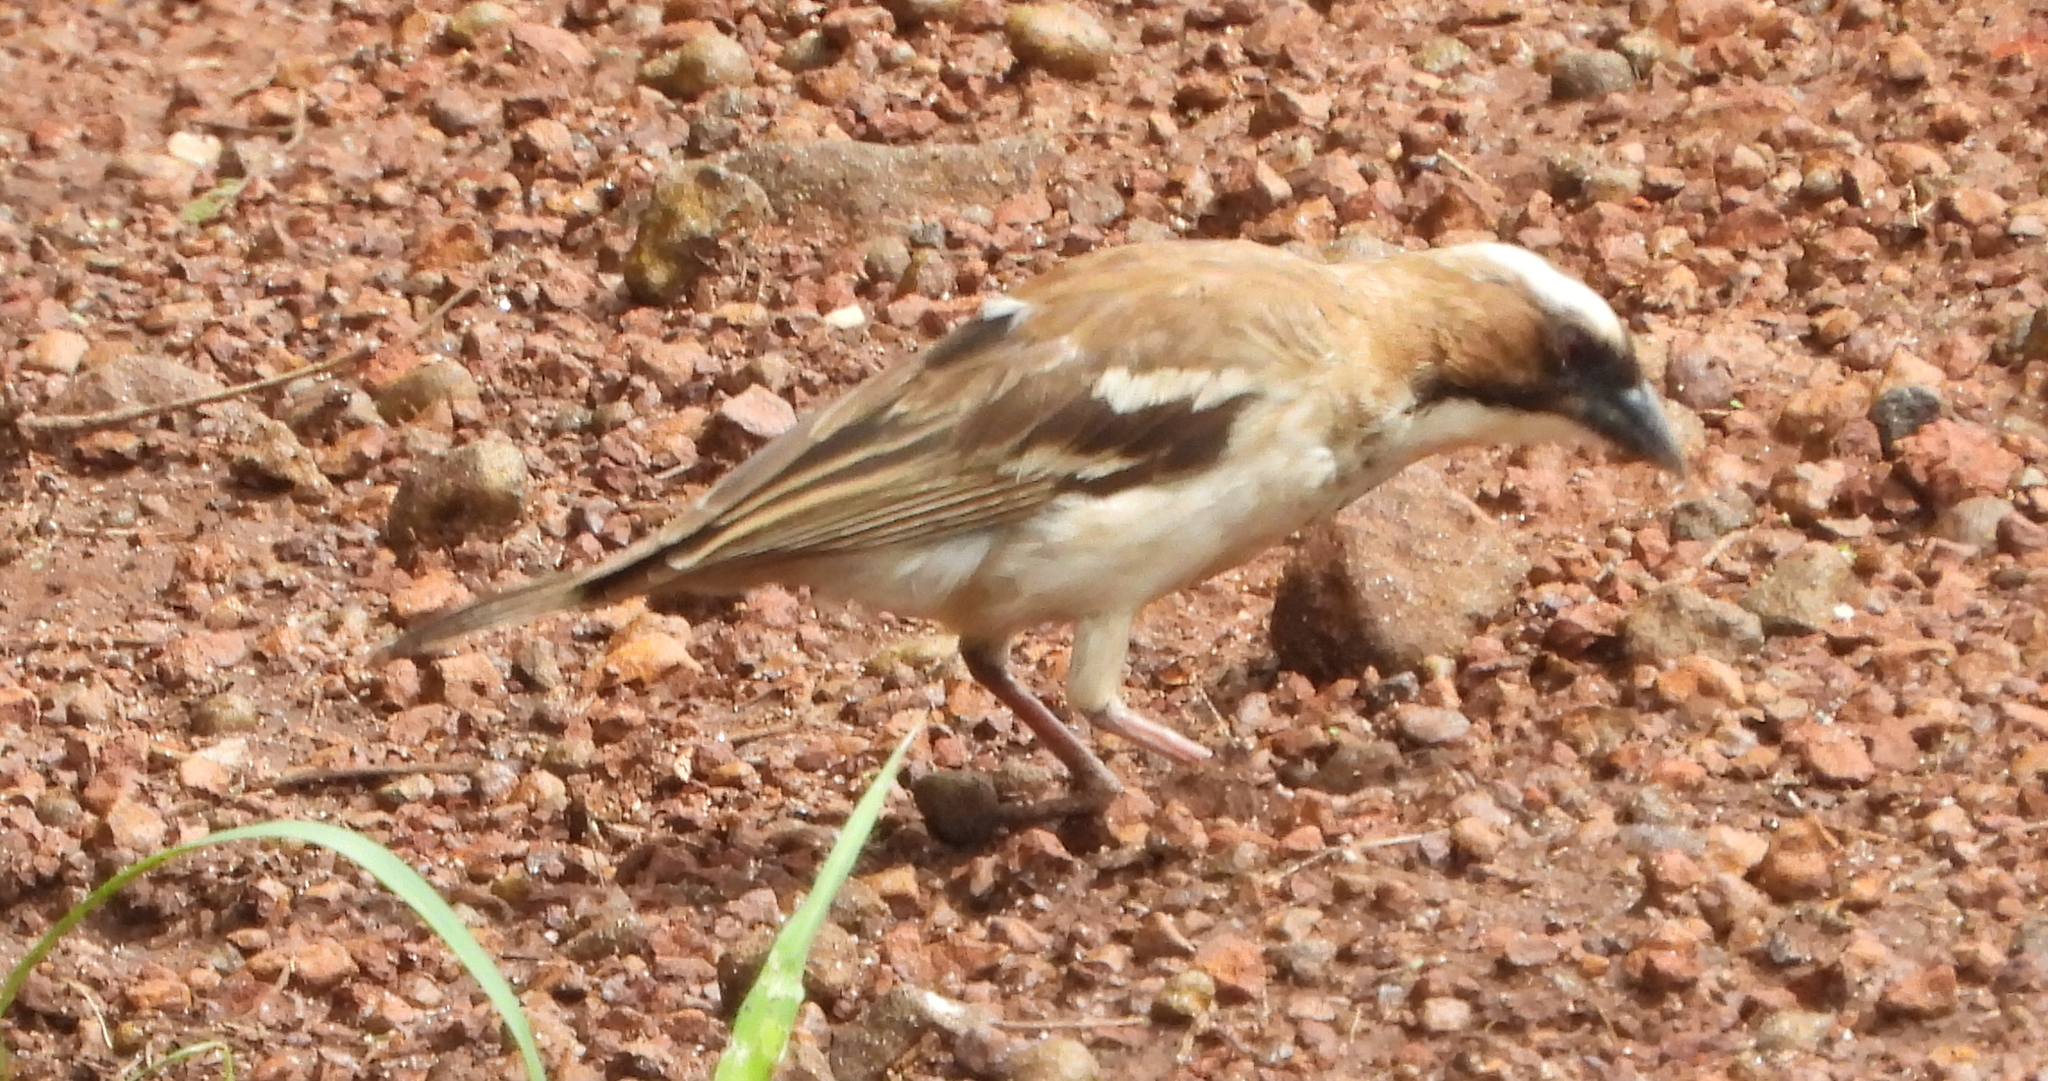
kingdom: Animalia
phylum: Chordata
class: Aves
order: Passeriformes
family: Passeridae
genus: Plocepasser
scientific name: Plocepasser mahali
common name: White-browed sparrow-weaver
